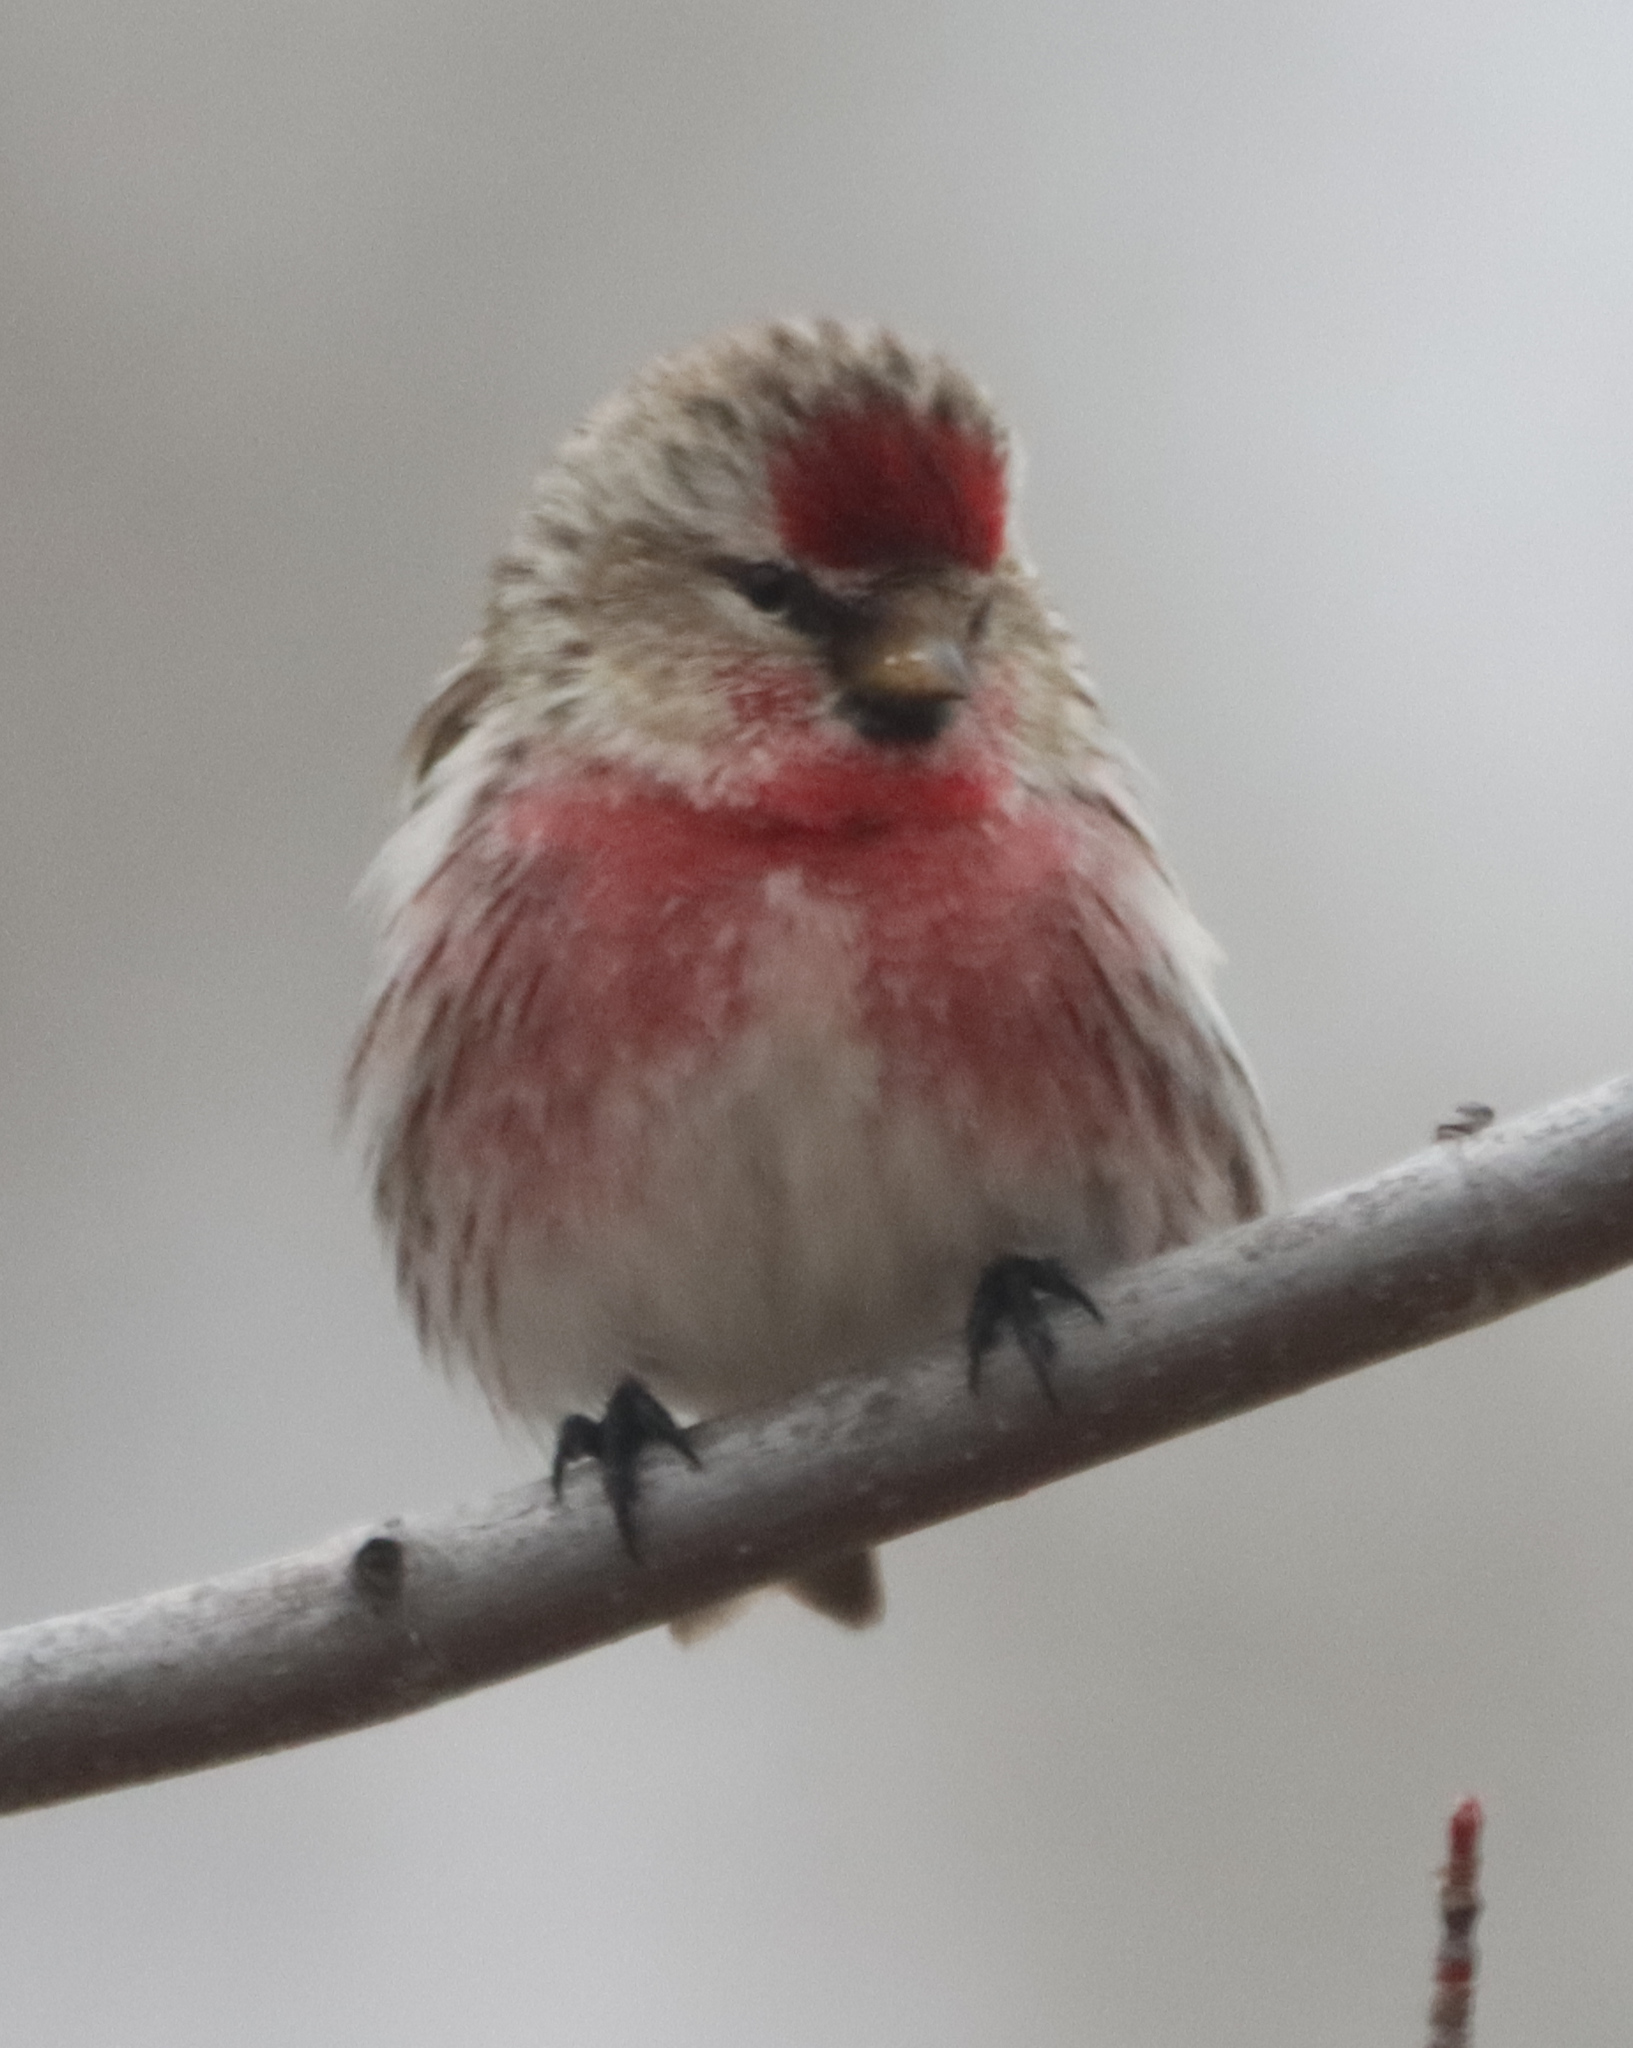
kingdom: Animalia
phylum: Chordata
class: Aves
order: Passeriformes
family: Fringillidae
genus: Acanthis
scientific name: Acanthis flammea
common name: Common redpoll
